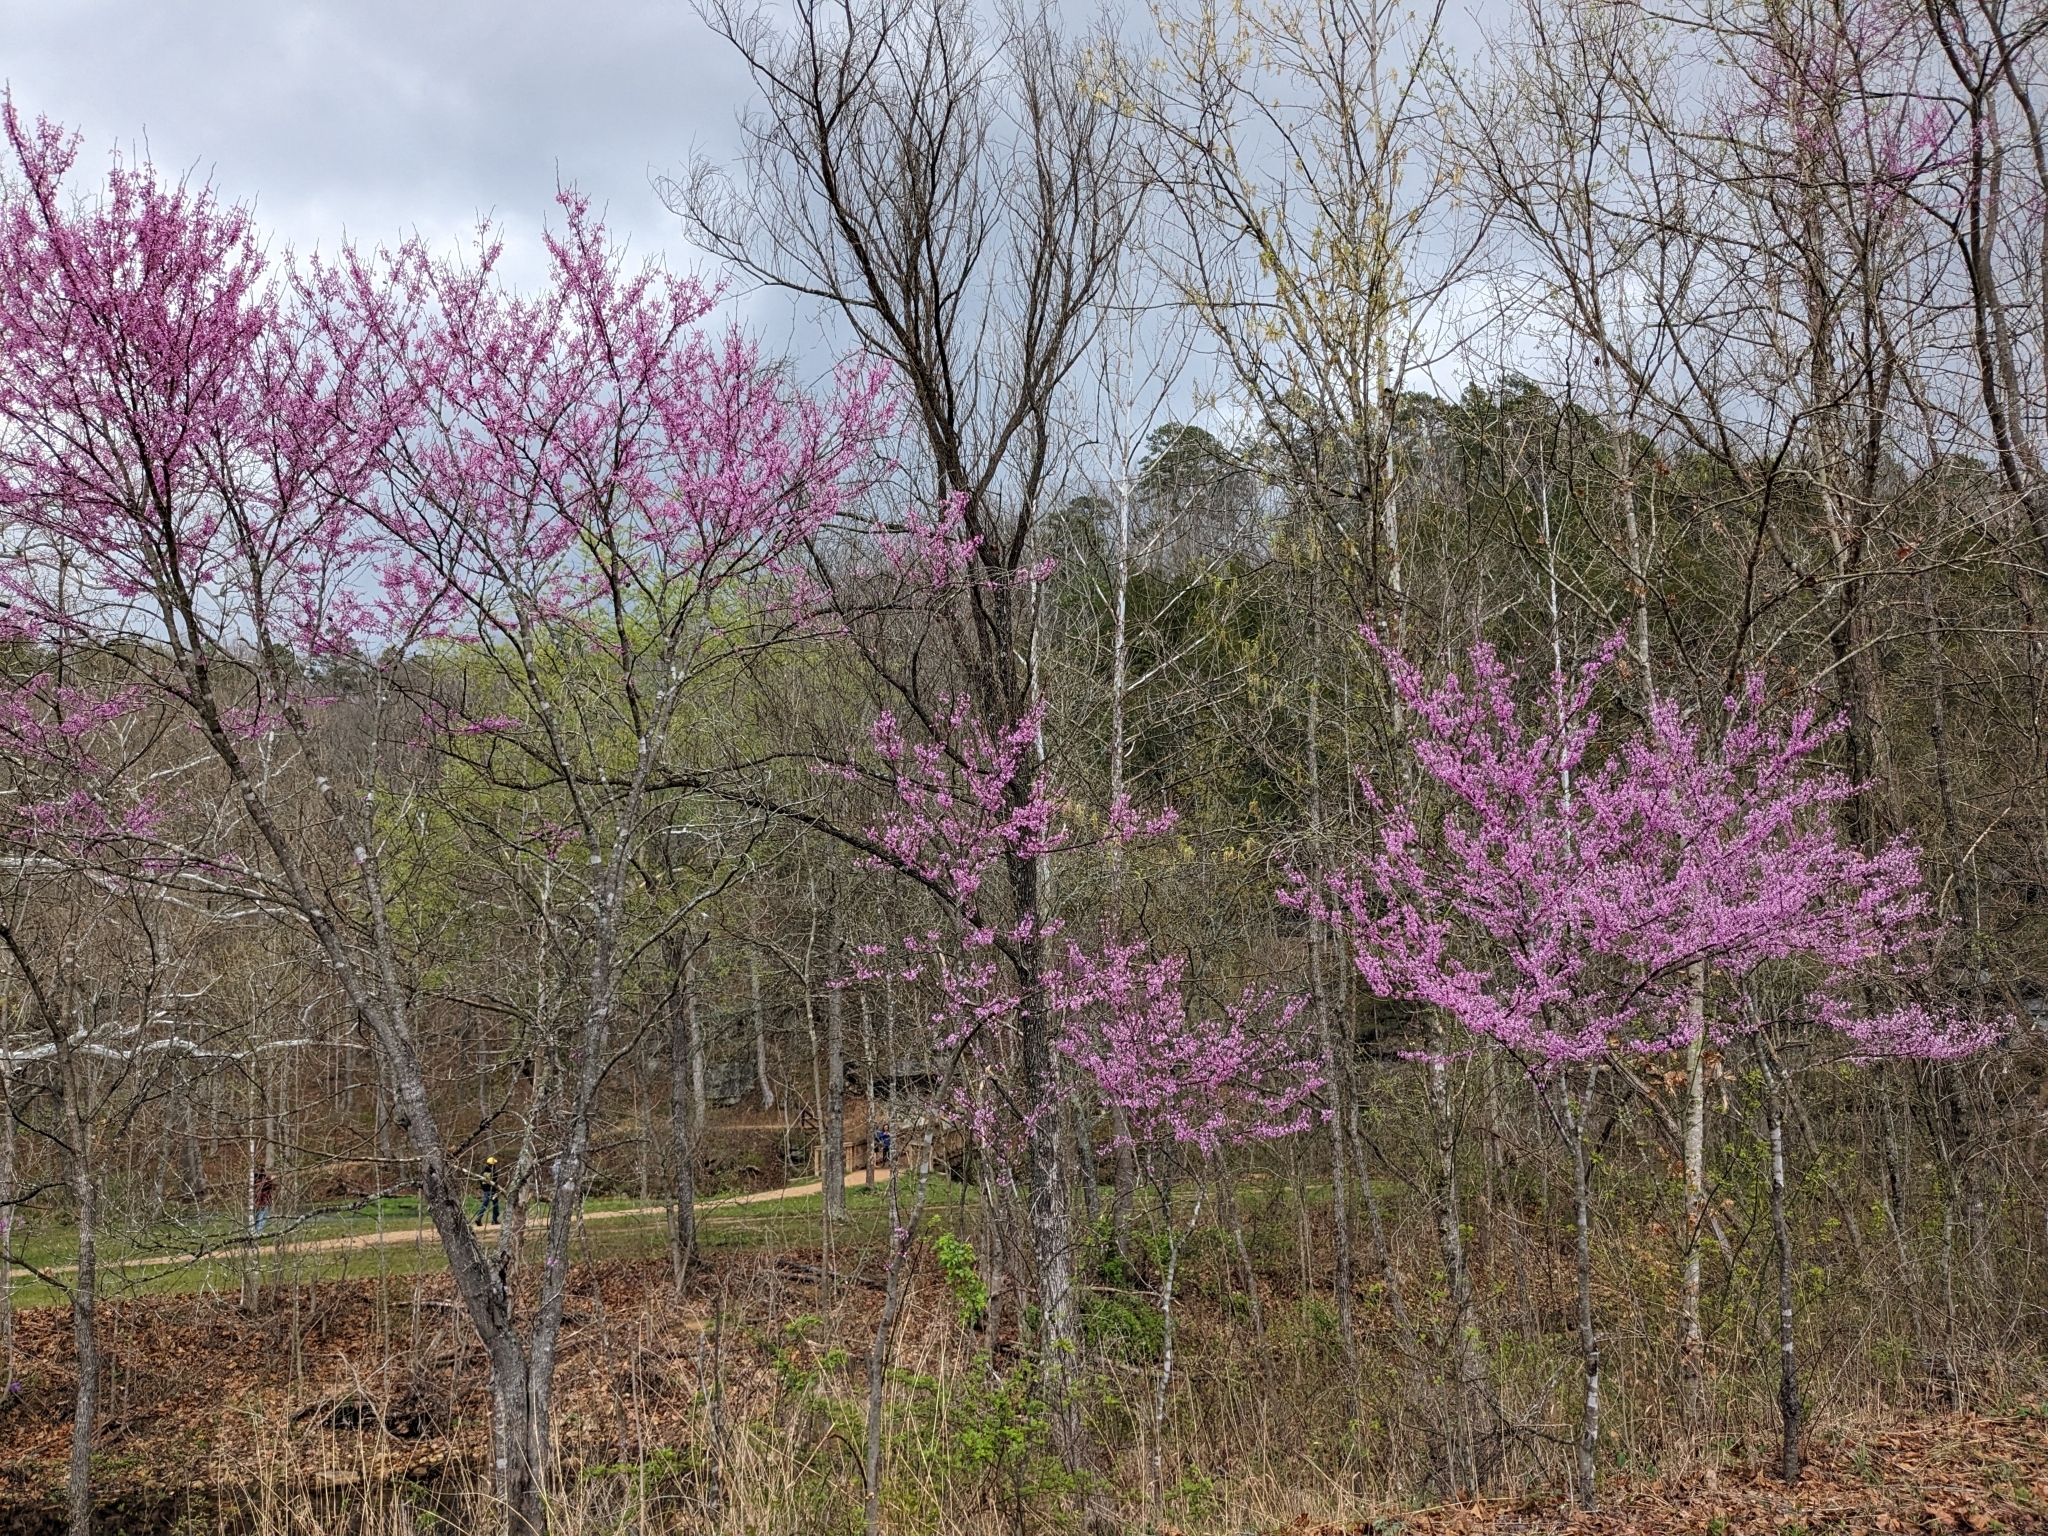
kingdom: Plantae
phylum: Tracheophyta
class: Magnoliopsida
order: Fabales
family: Fabaceae
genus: Cercis
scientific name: Cercis canadensis
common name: Eastern redbud
